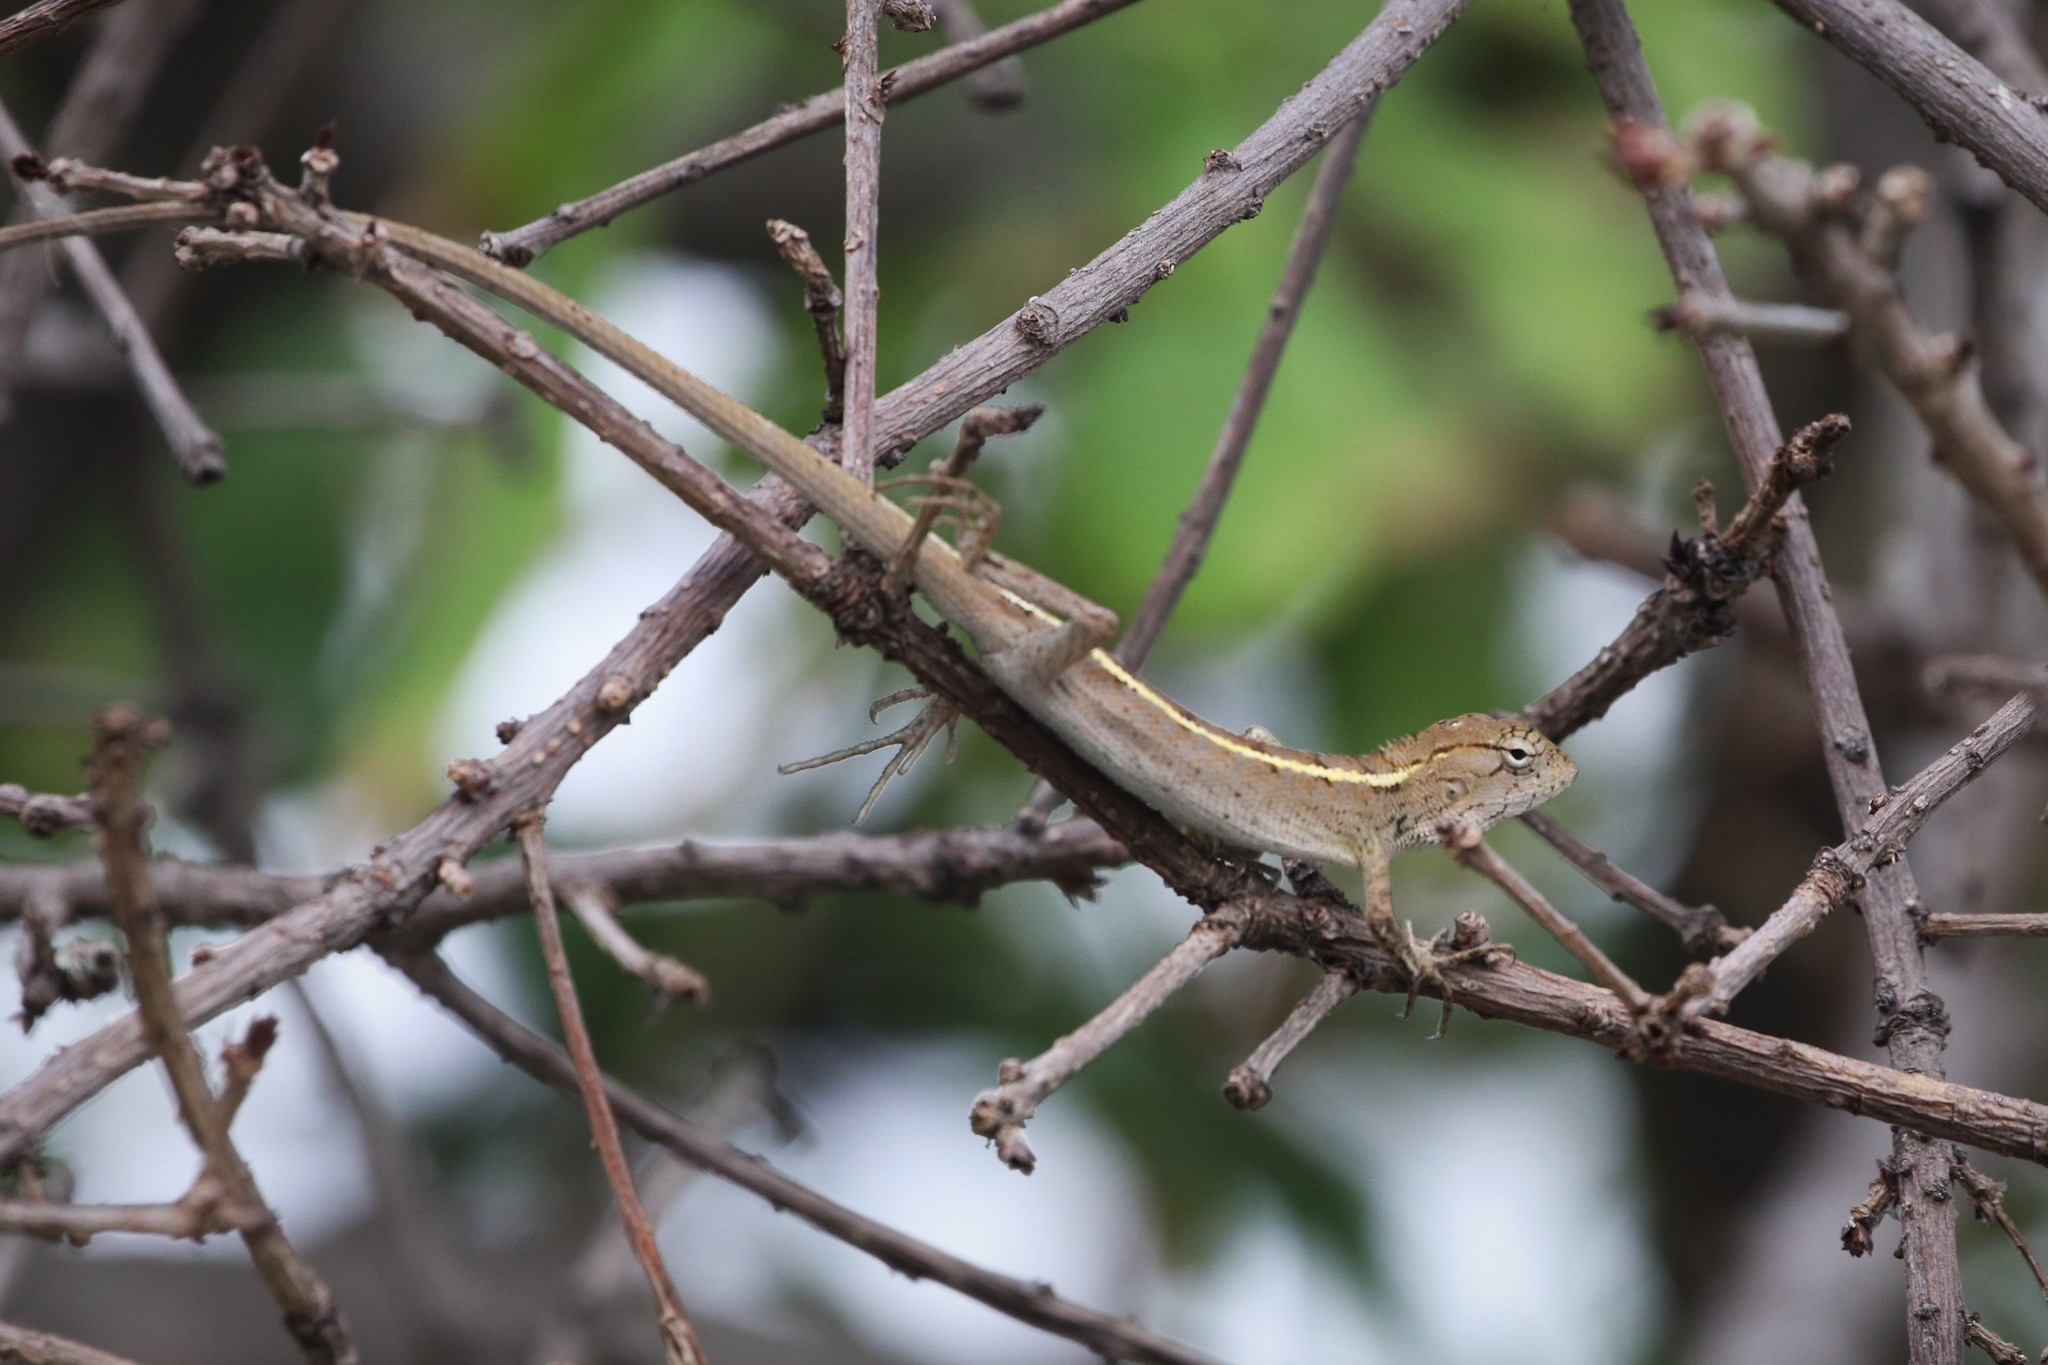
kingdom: Animalia
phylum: Chordata
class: Squamata
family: Agamidae
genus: Calotes
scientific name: Calotes versicolor
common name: Oriental garden lizard
